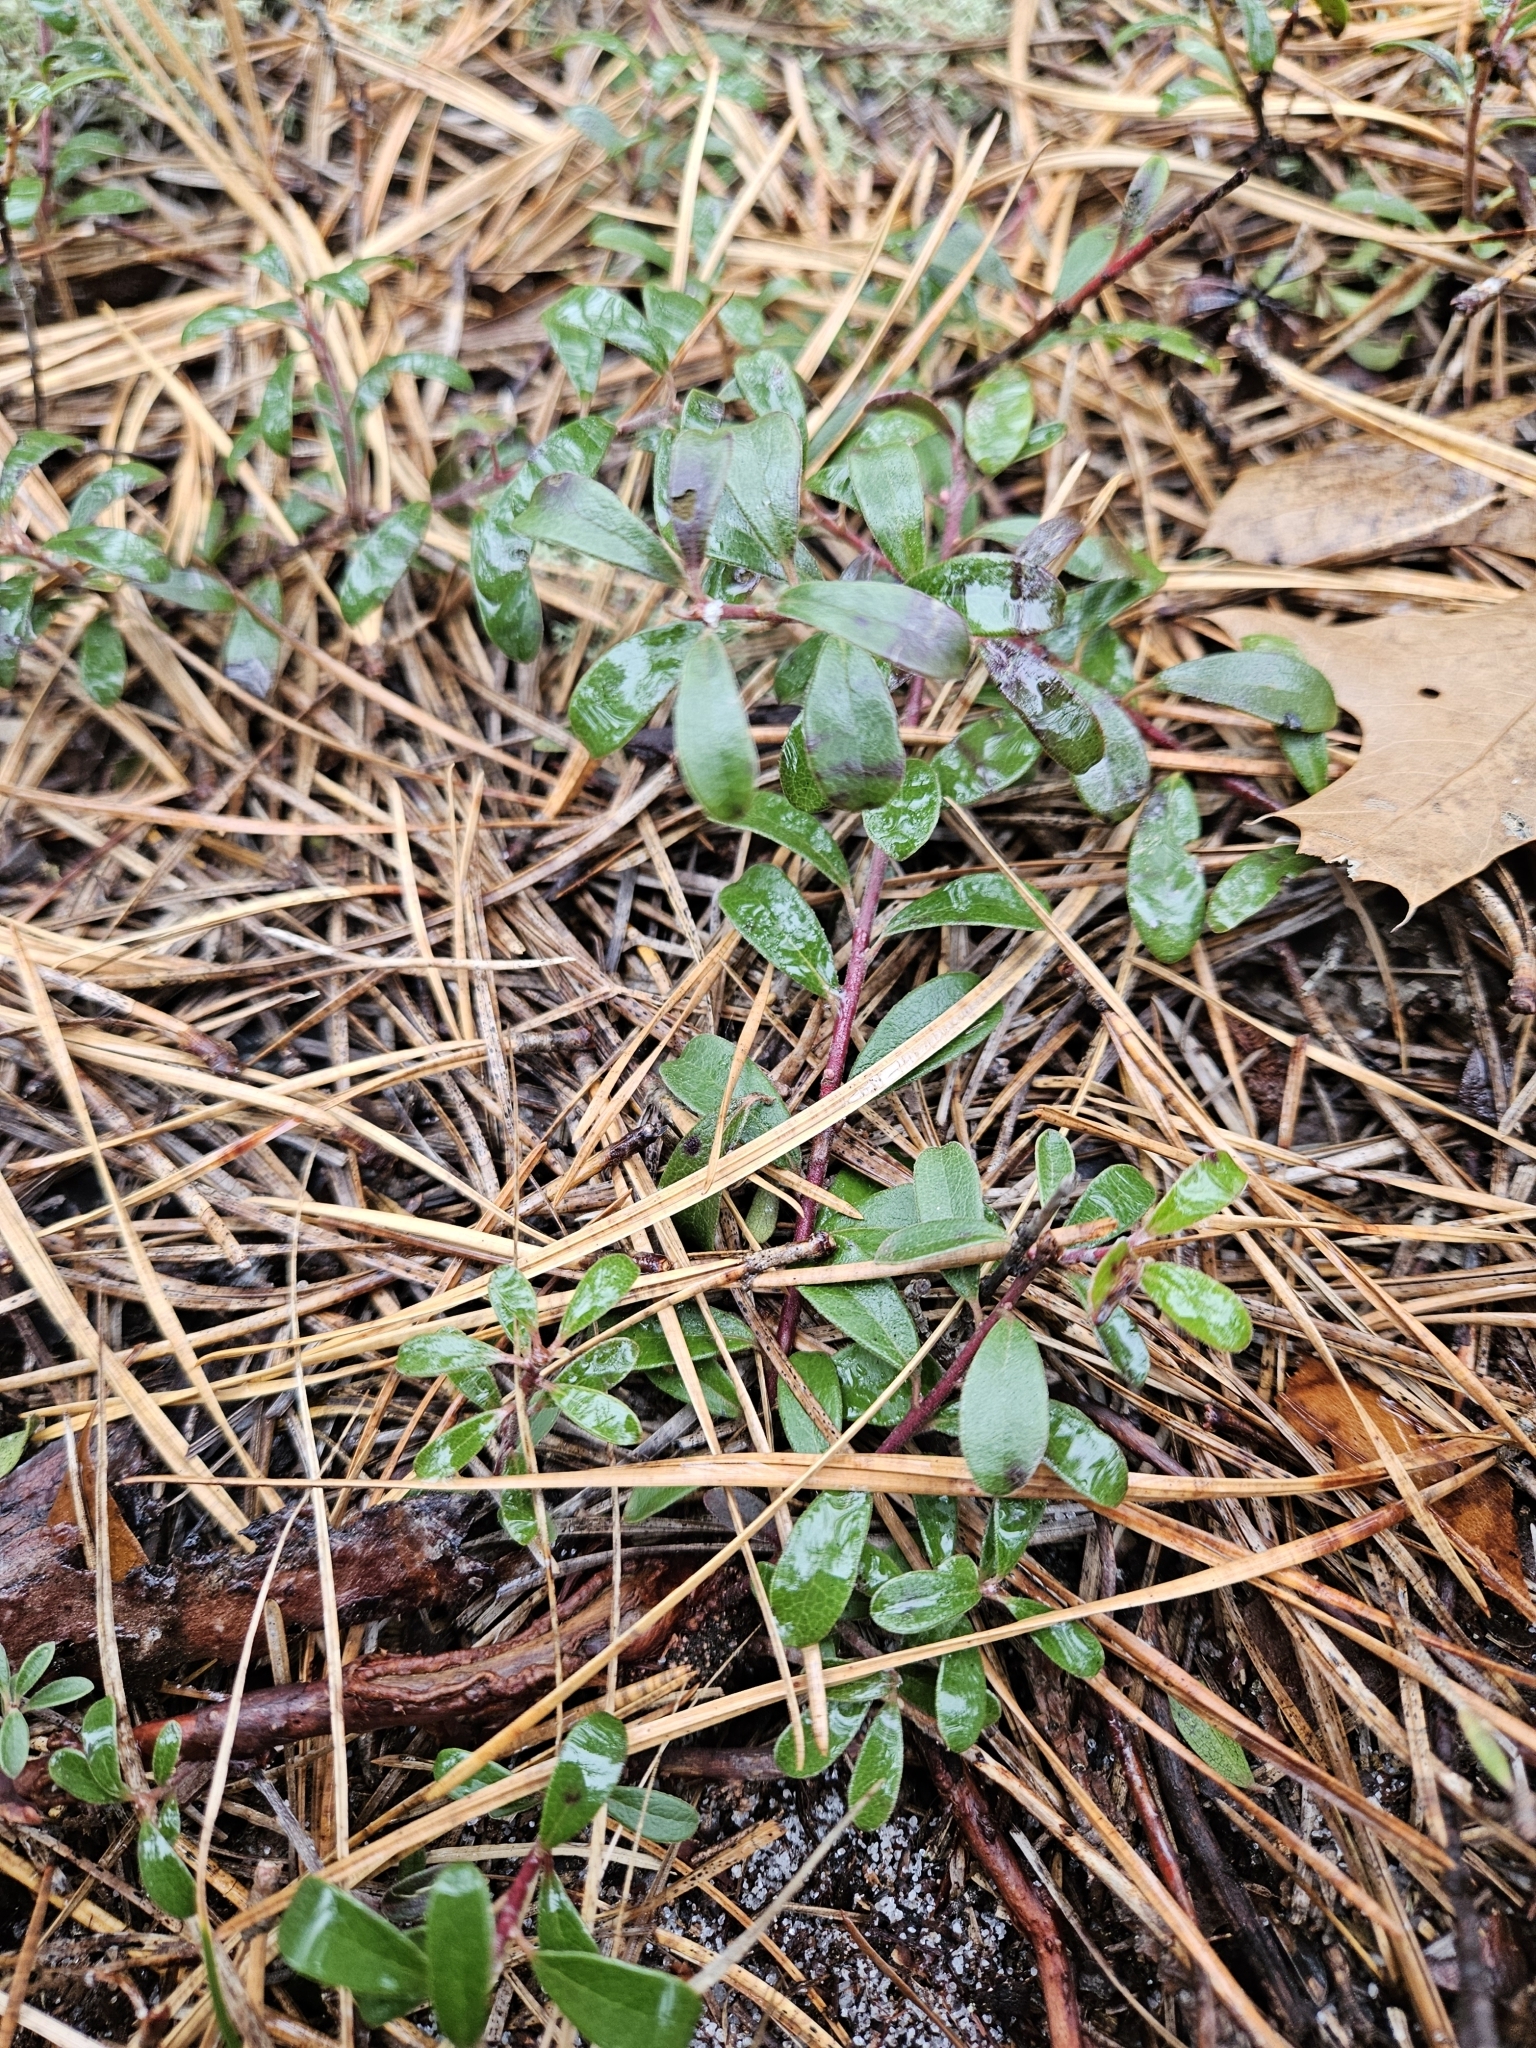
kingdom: Plantae
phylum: Tracheophyta
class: Magnoliopsida
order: Ericales
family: Ericaceae
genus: Arctostaphylos
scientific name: Arctostaphylos uva-ursi
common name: Bearberry
